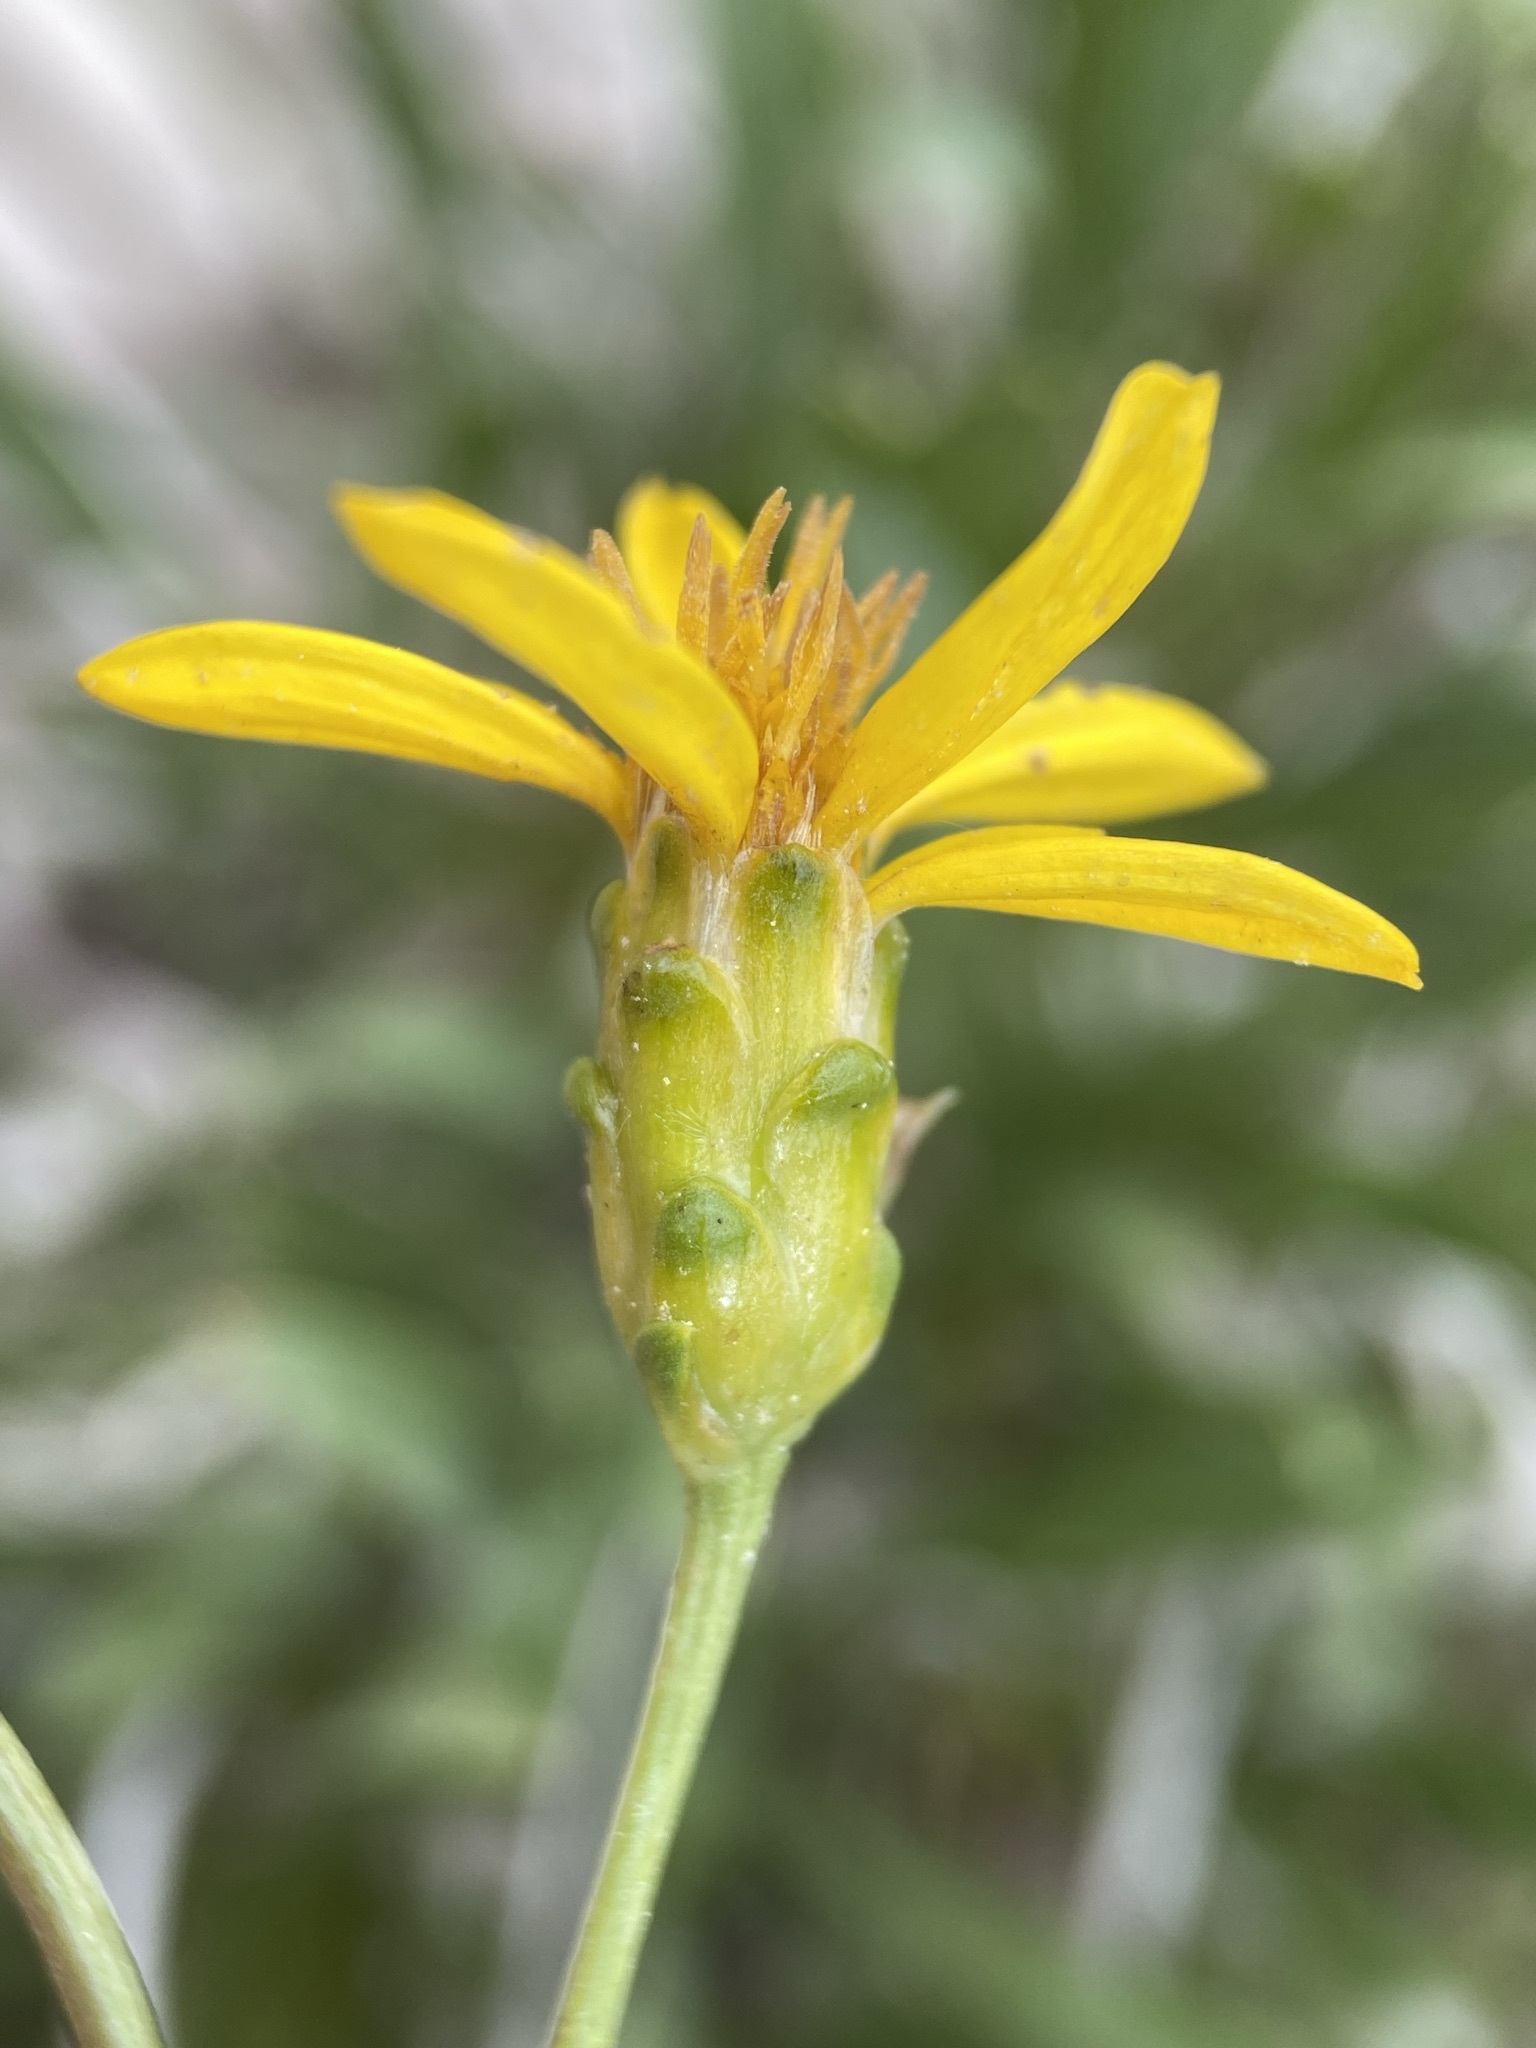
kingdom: Plantae
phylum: Tracheophyta
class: Magnoliopsida
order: Asterales
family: Asteraceae
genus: Stenotus
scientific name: Stenotus armerioides
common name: Thrifty goldenweed
